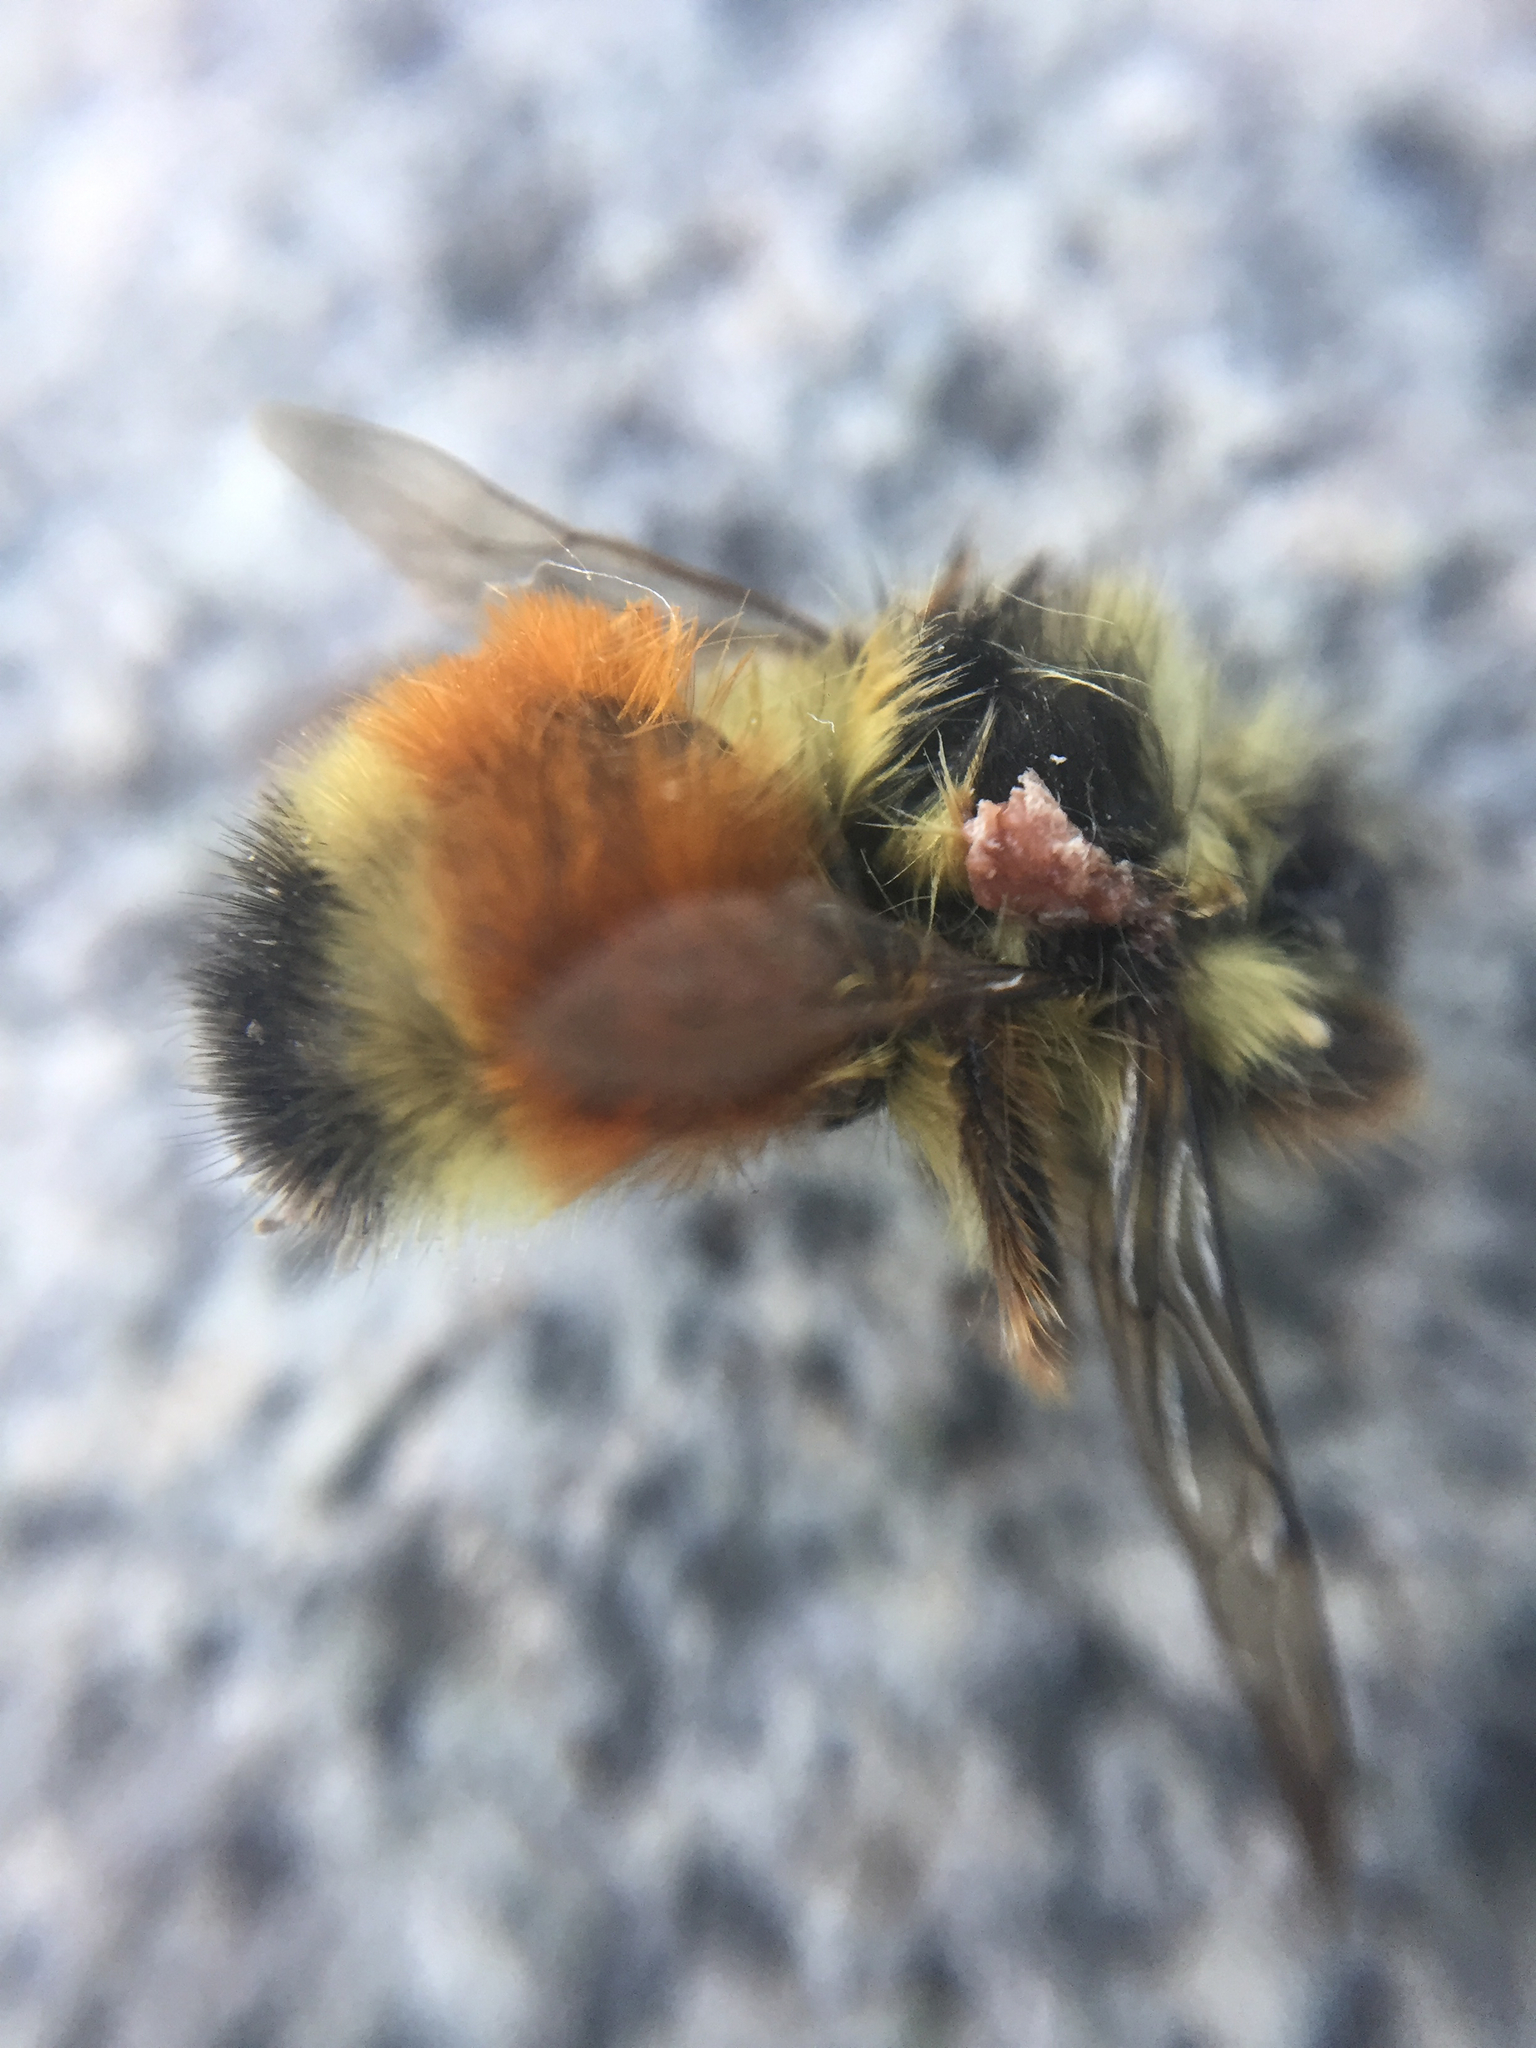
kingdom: Animalia
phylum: Arthropoda
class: Insecta
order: Hymenoptera
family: Apidae
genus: Bombus
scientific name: Bombus ternarius
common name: Tri-colored bumble bee
